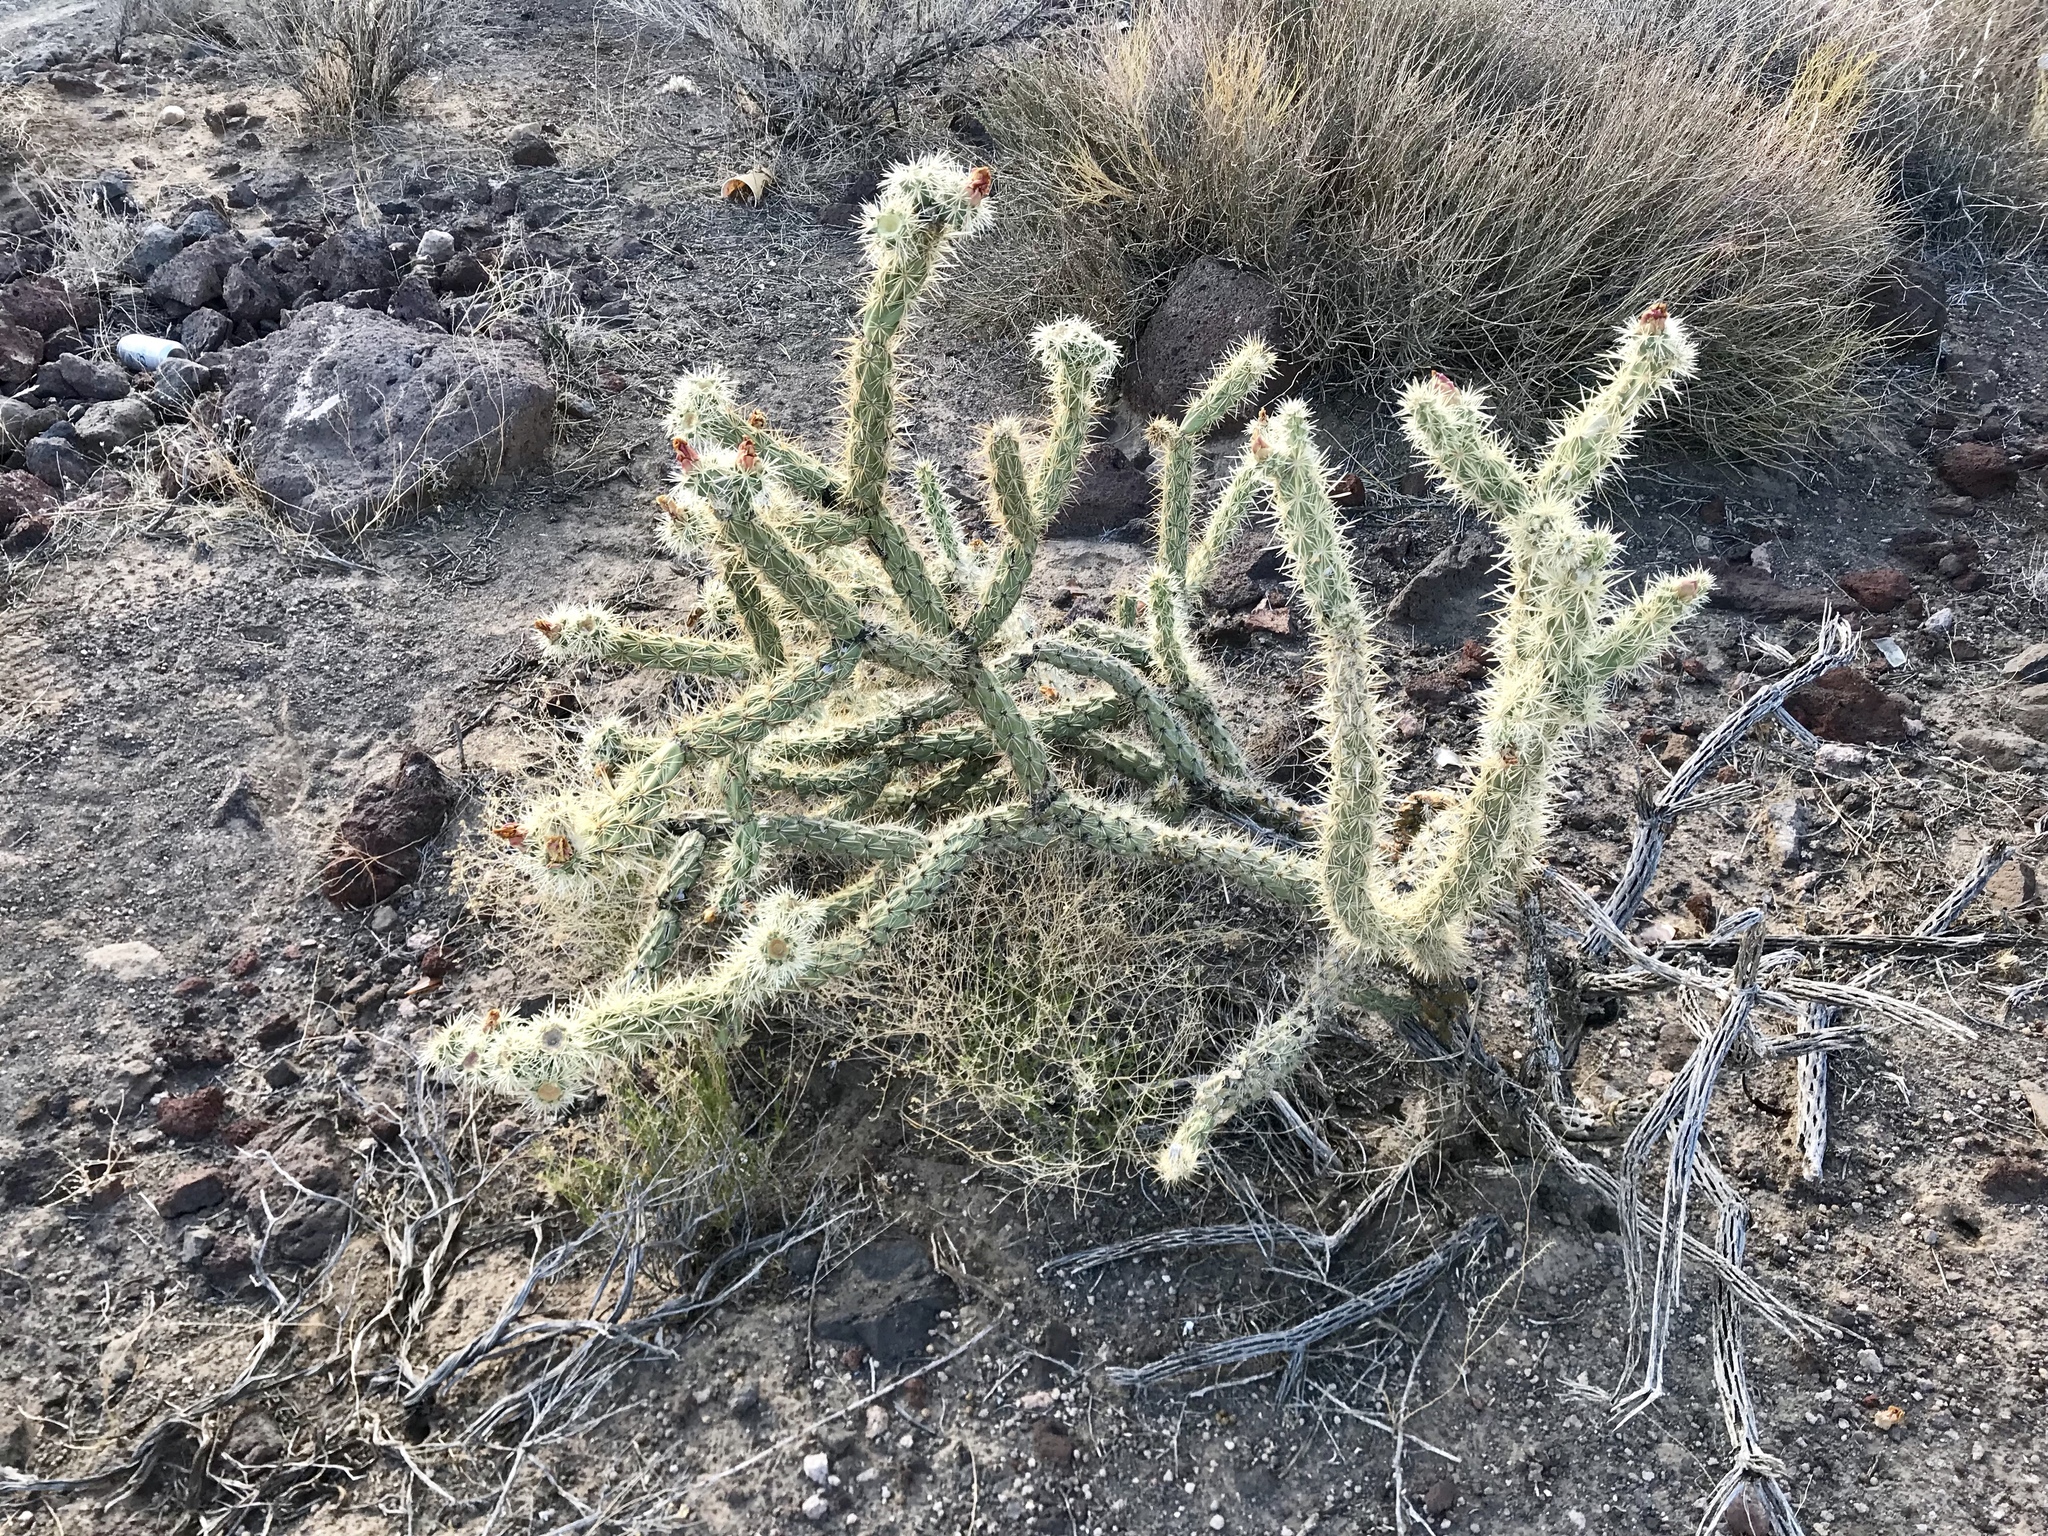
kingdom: Plantae
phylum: Tracheophyta
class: Magnoliopsida
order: Caryophyllales
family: Cactaceae
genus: Cylindropuntia
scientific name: Cylindropuntia acanthocarpa
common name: Buckhorn cholla
